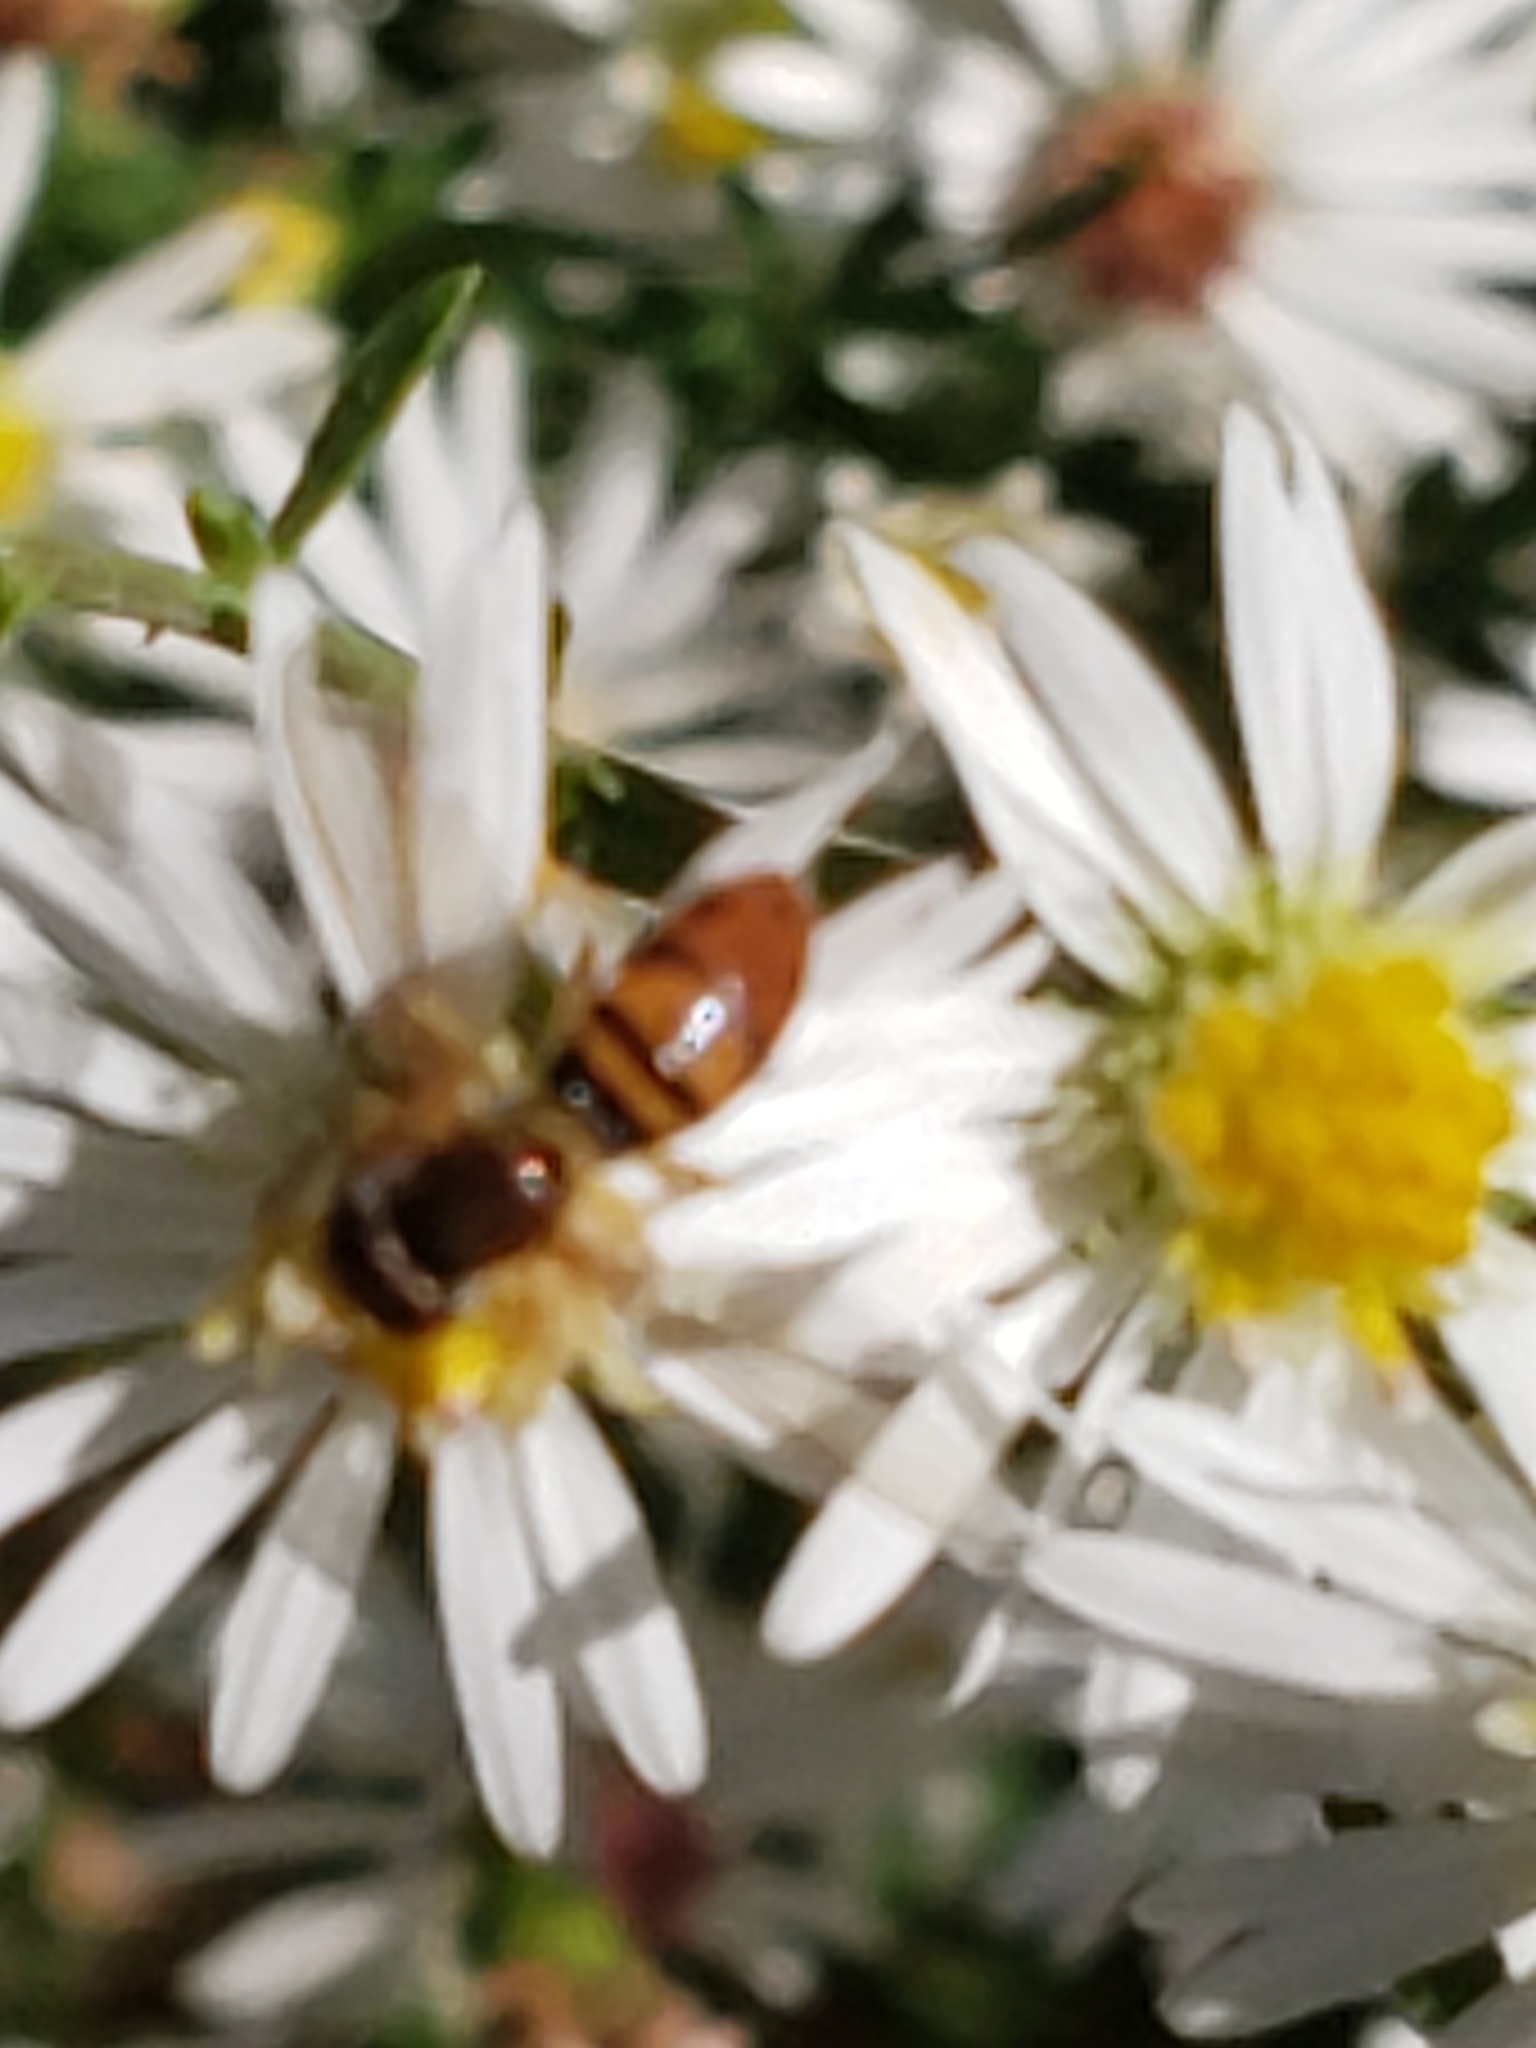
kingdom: Animalia
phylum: Arthropoda
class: Insecta
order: Diptera
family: Syrphidae
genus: Toxomerus
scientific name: Toxomerus marginatus
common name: Syrphid fly
